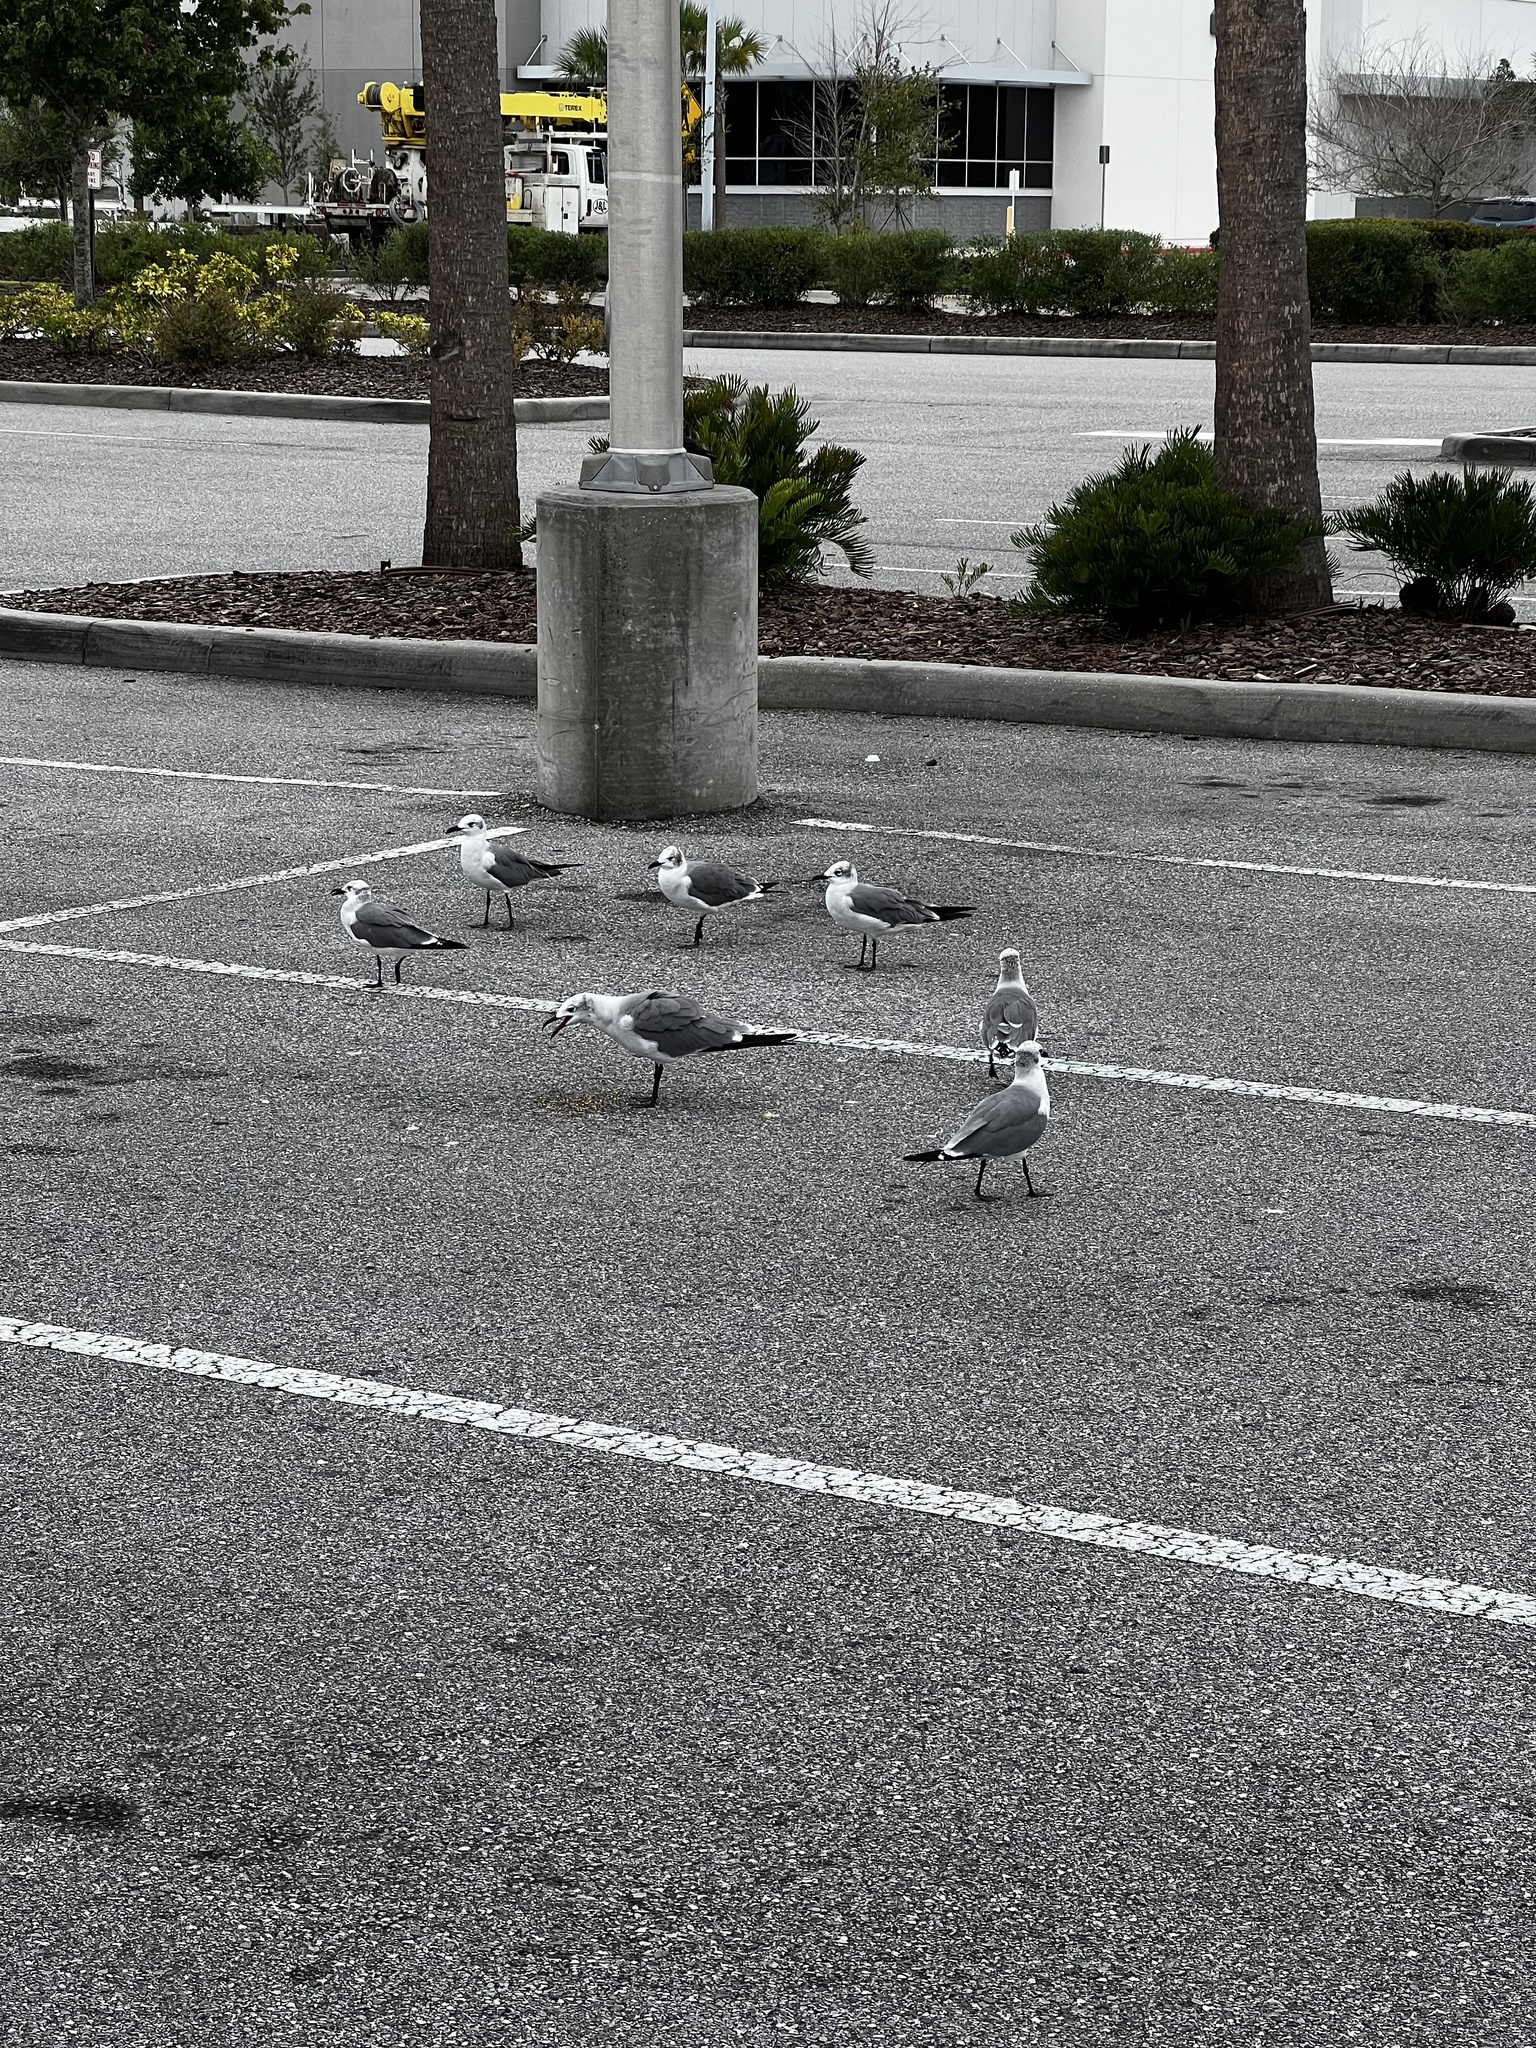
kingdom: Animalia
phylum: Chordata
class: Aves
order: Charadriiformes
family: Laridae
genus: Leucophaeus
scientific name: Leucophaeus atricilla
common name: Laughing gull
